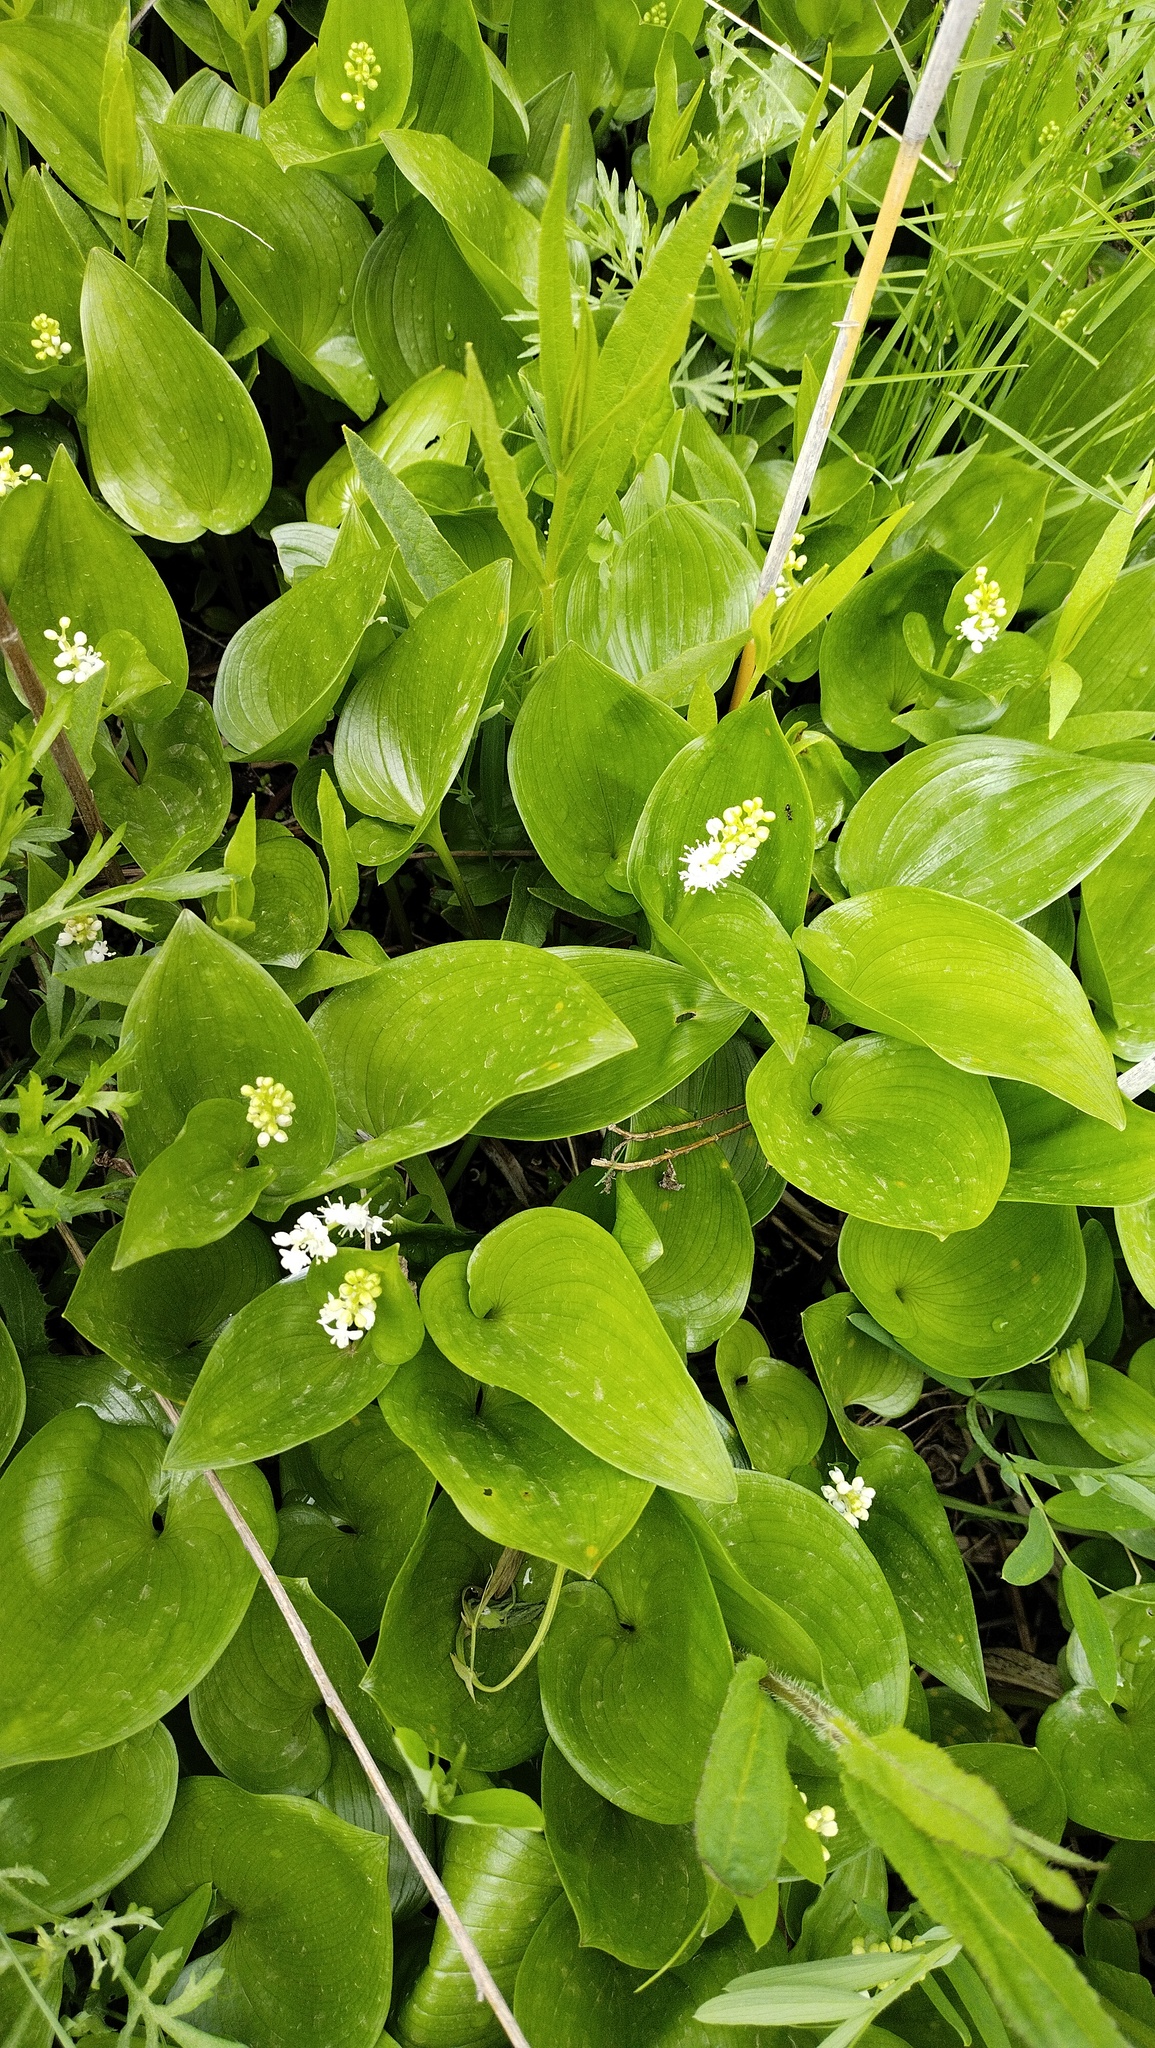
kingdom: Plantae
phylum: Tracheophyta
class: Liliopsida
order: Asparagales
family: Asparagaceae
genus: Maianthemum
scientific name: Maianthemum dilatatum
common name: False lily-of-the-valley
